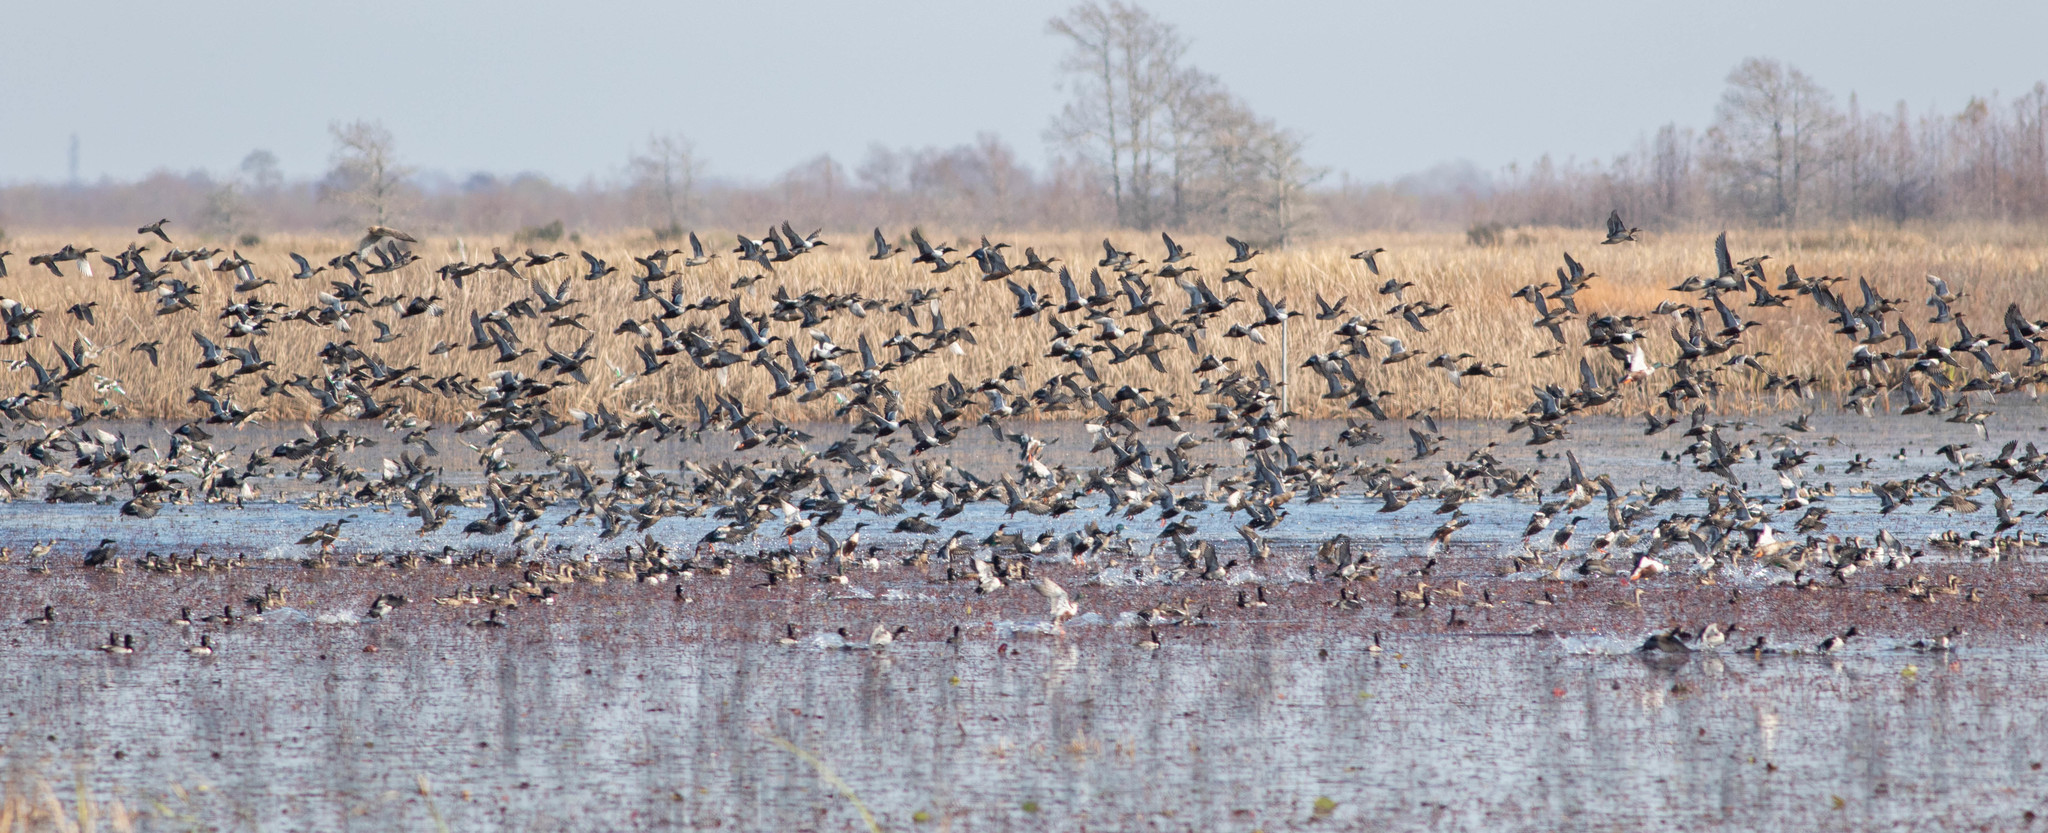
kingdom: Animalia
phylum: Chordata
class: Aves
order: Anseriformes
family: Anatidae
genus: Spatula
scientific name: Spatula clypeata
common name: Northern shoveler
